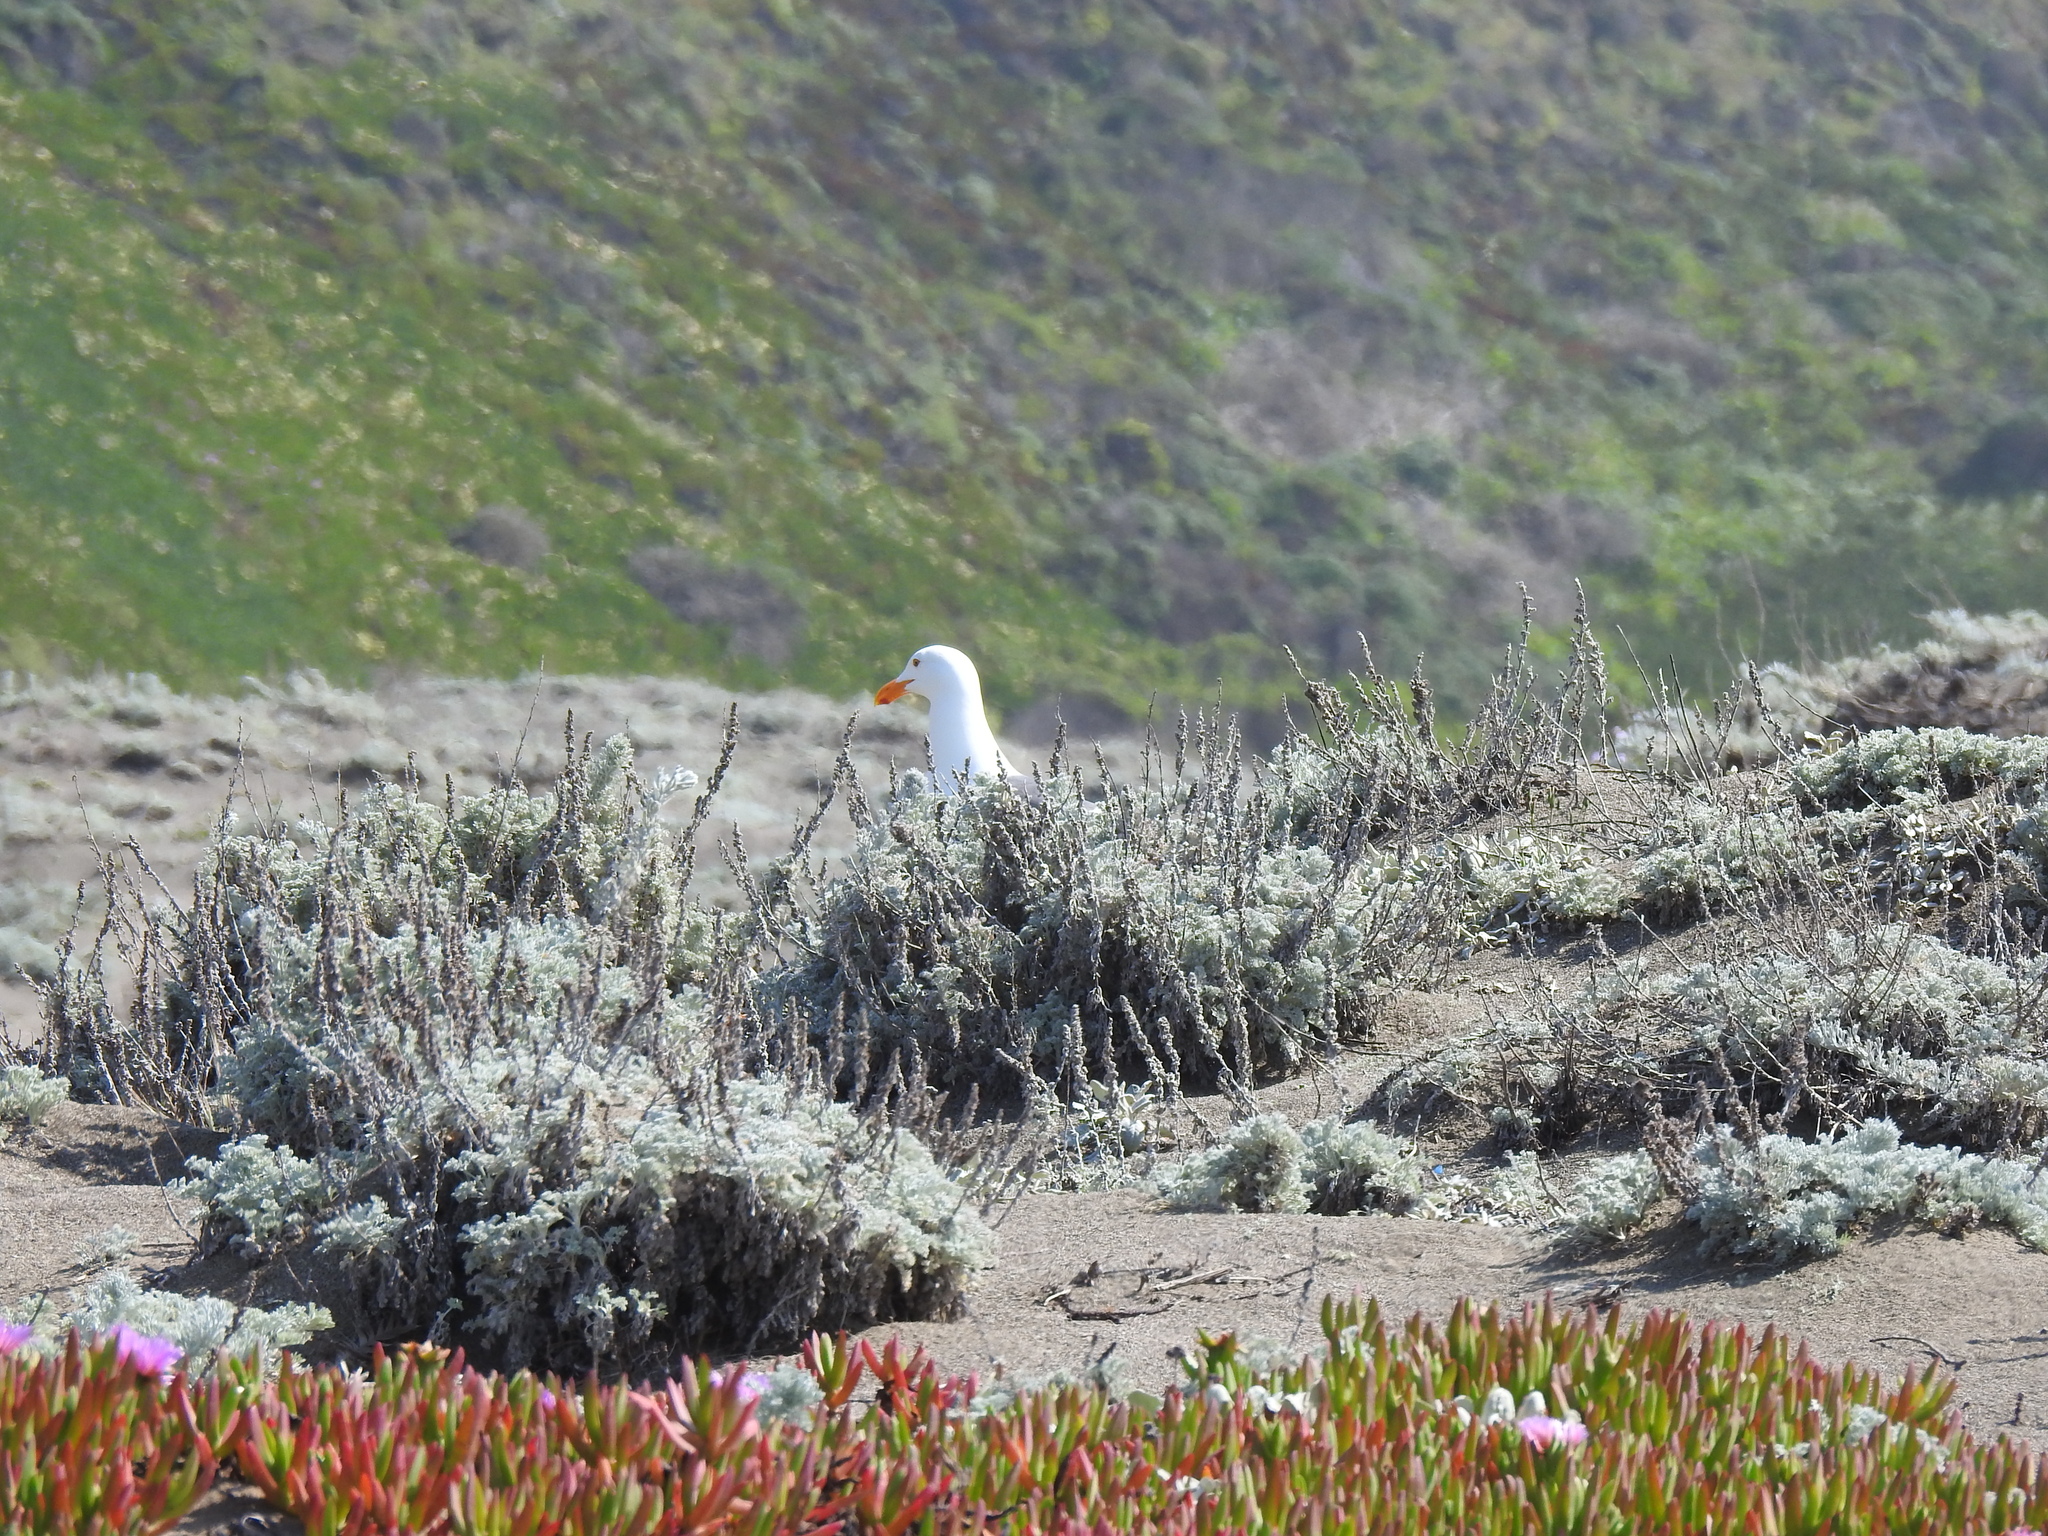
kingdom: Animalia
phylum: Chordata
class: Aves
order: Charadriiformes
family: Laridae
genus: Larus
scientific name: Larus occidentalis
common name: Western gull
